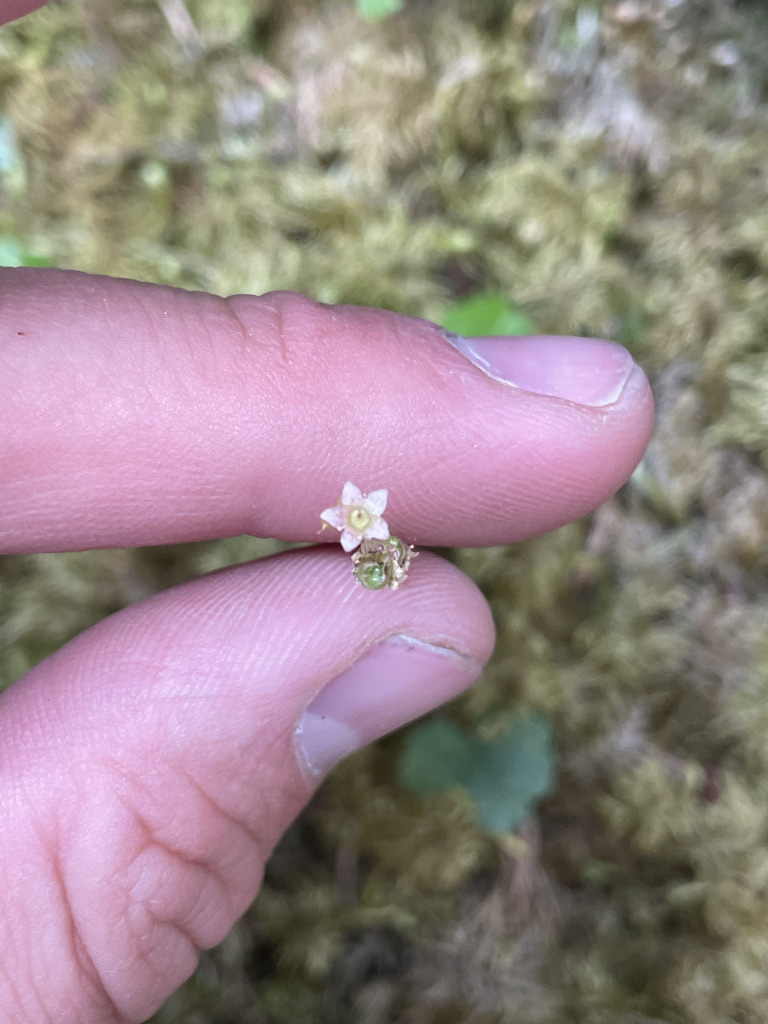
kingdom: Plantae
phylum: Tracheophyta
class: Magnoliopsida
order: Saxifragales
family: Saxifragaceae
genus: Pectiantia
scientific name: Pectiantia pentandra
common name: Alpine bishop's-cap
